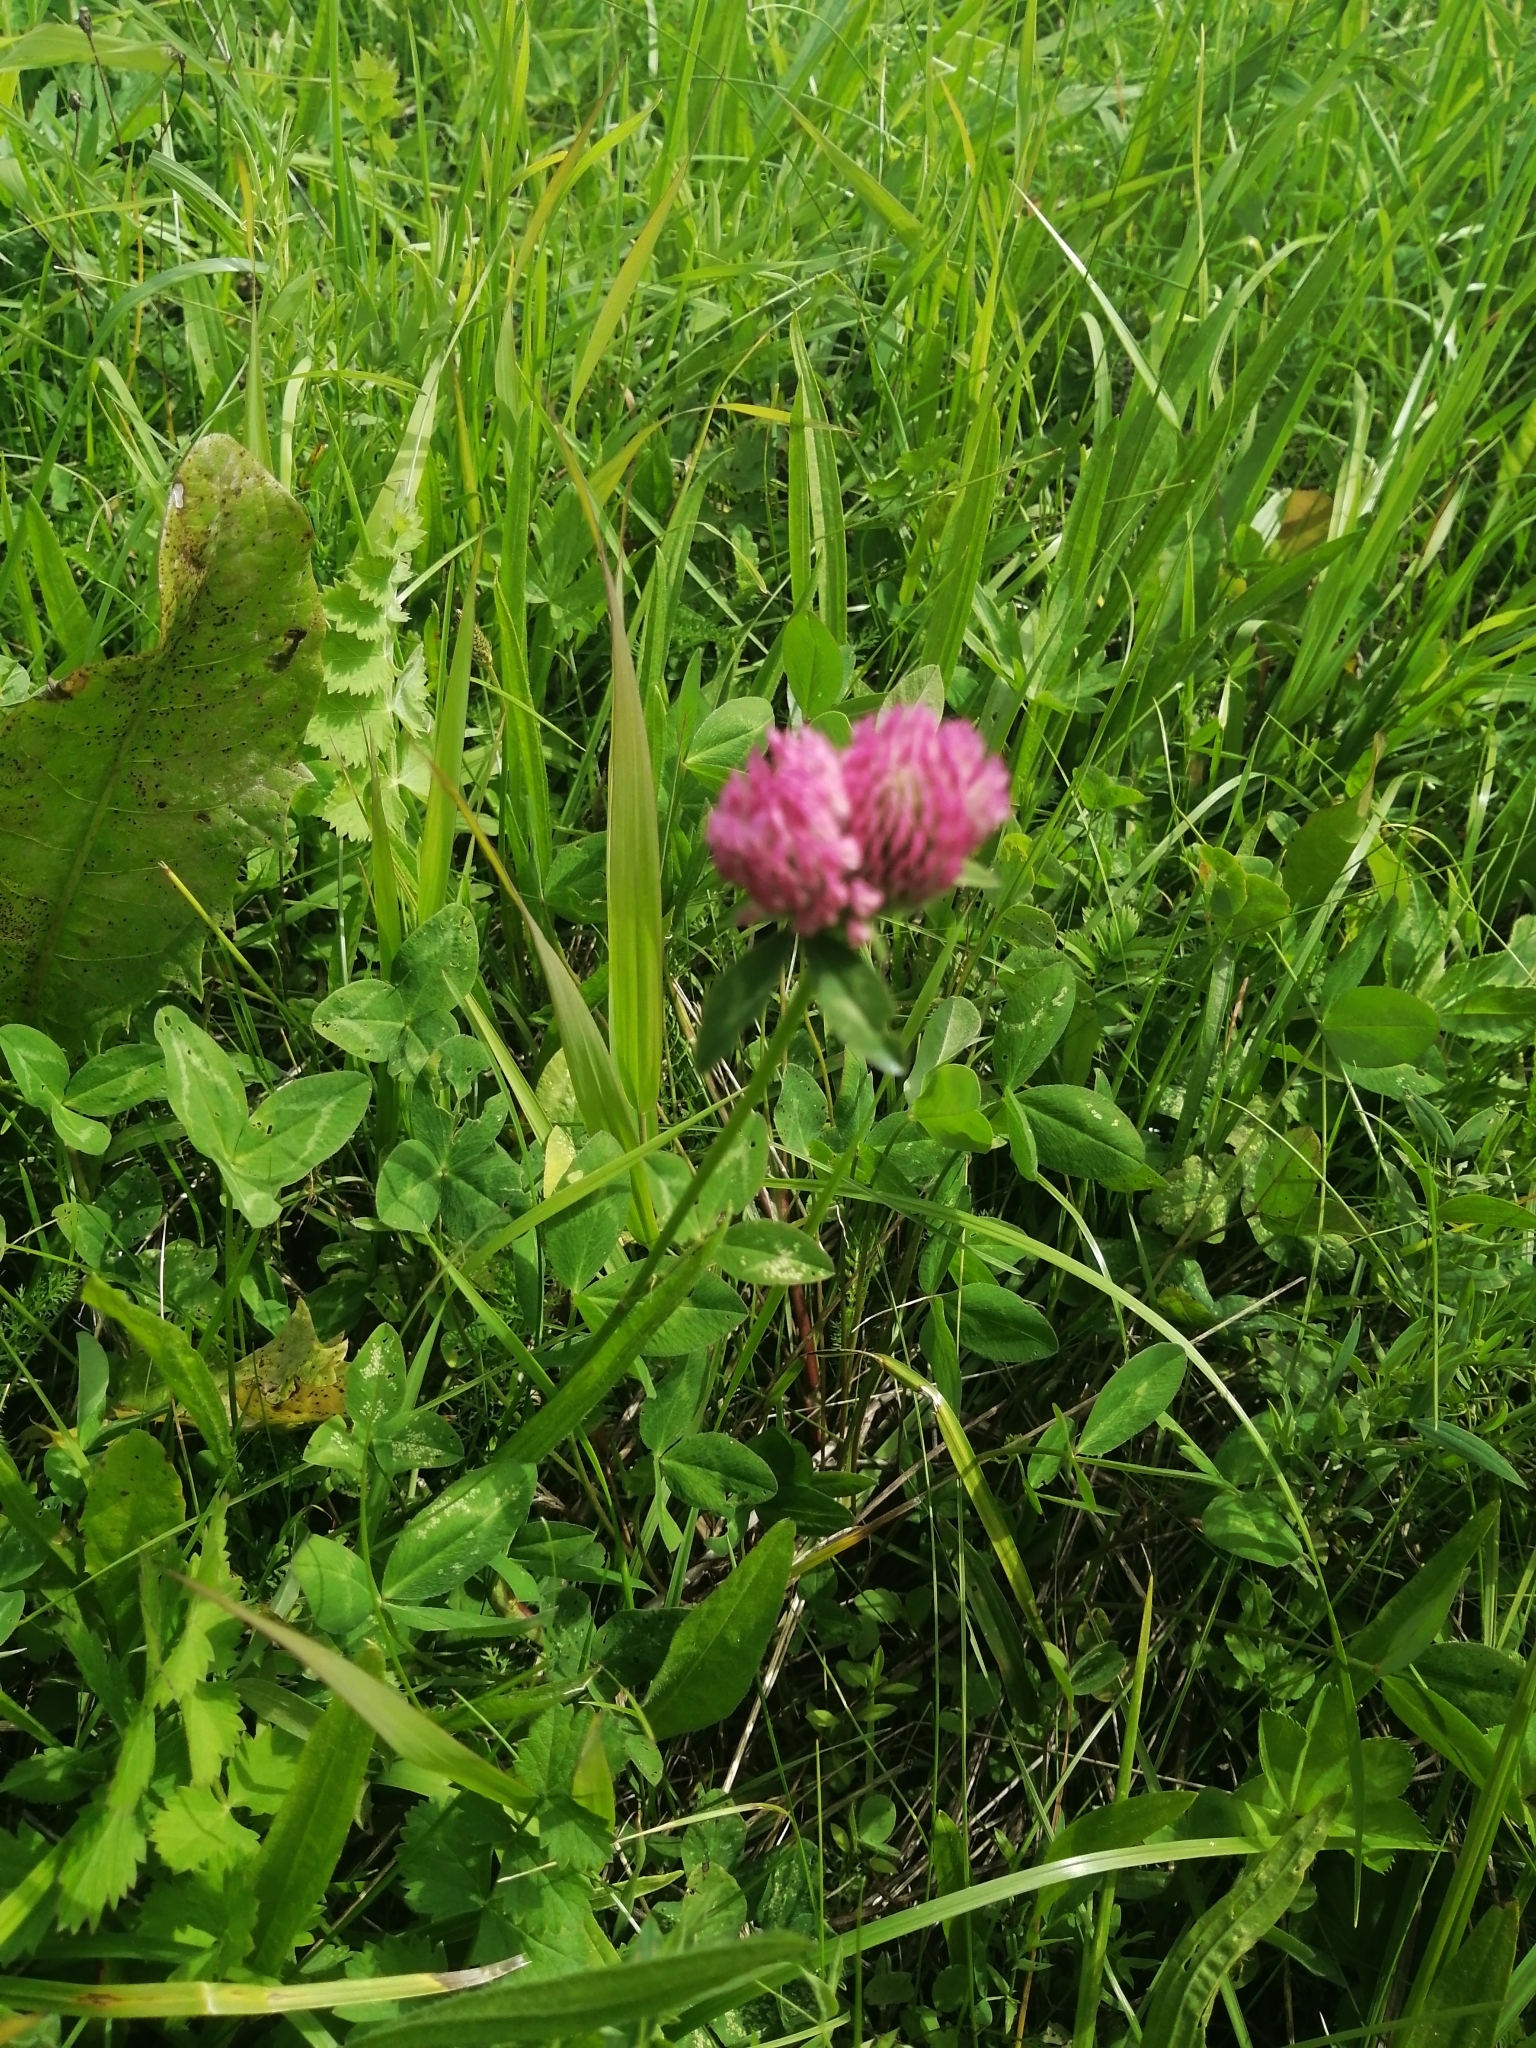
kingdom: Plantae
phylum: Tracheophyta
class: Magnoliopsida
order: Fabales
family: Fabaceae
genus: Trifolium
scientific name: Trifolium pratense
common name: Red clover
